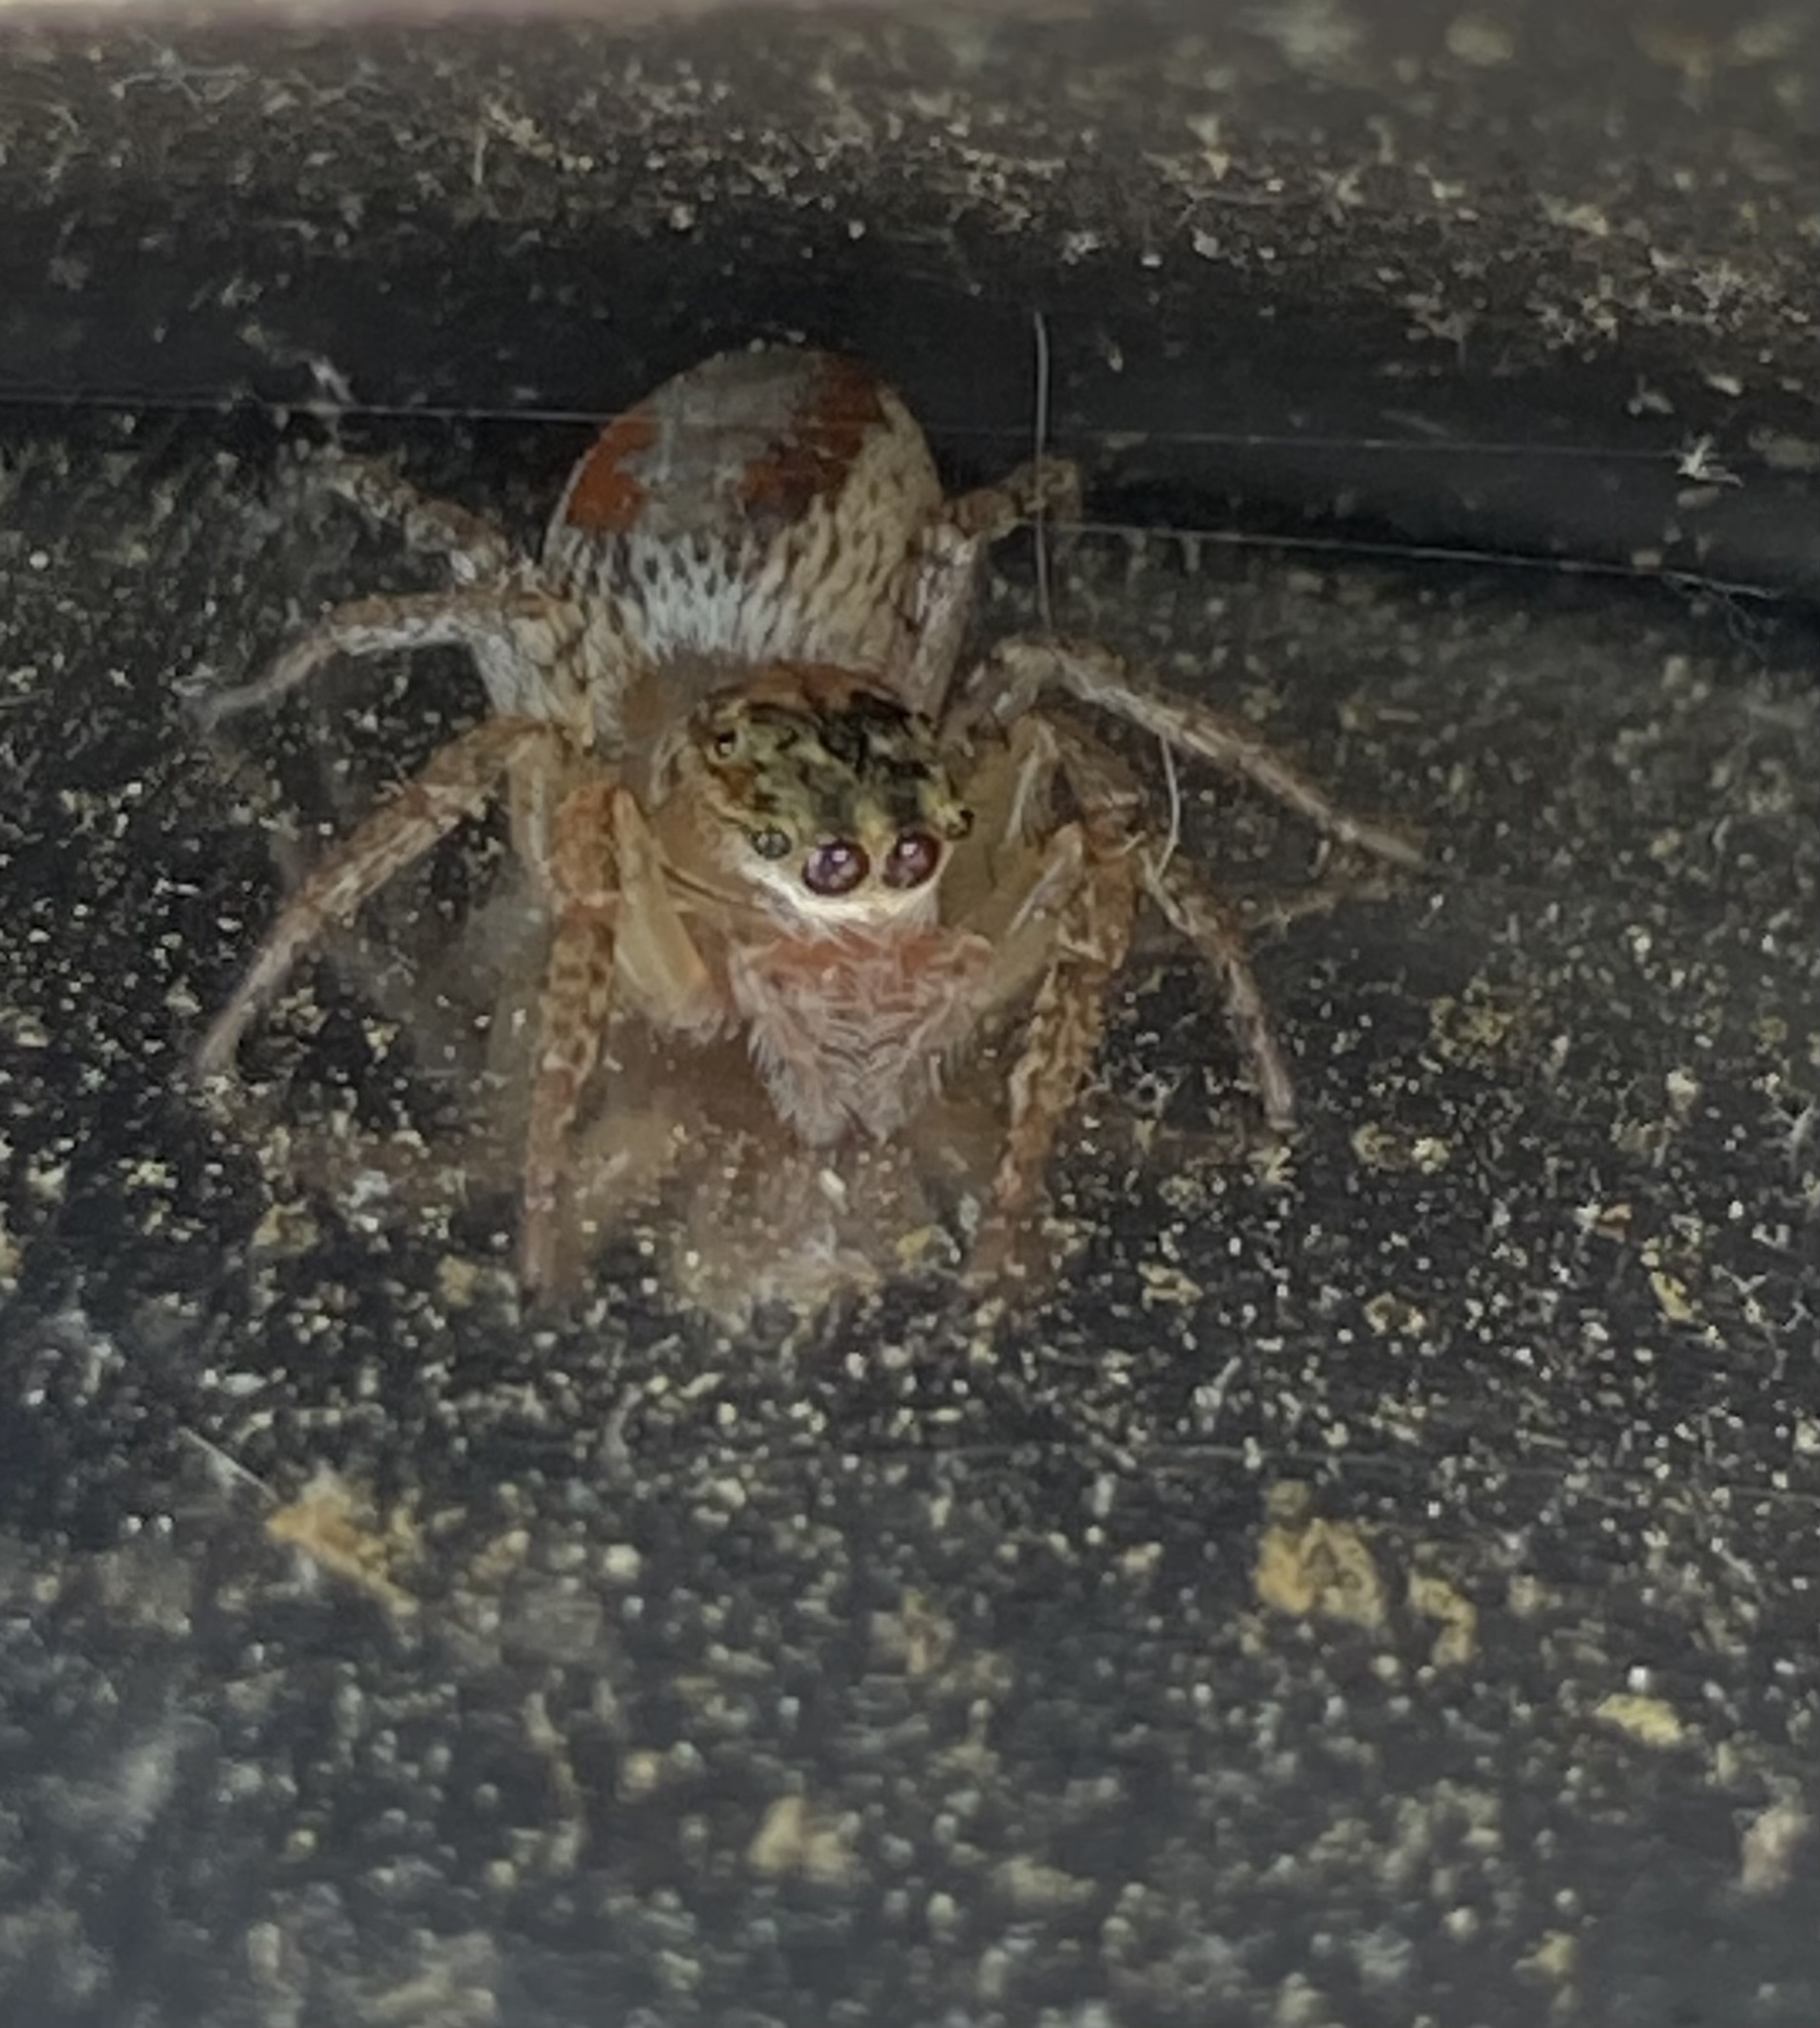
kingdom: Animalia
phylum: Arthropoda
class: Arachnida
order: Araneae
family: Salticidae
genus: Maevia
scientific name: Maevia inclemens
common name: Dimorphic jumper
